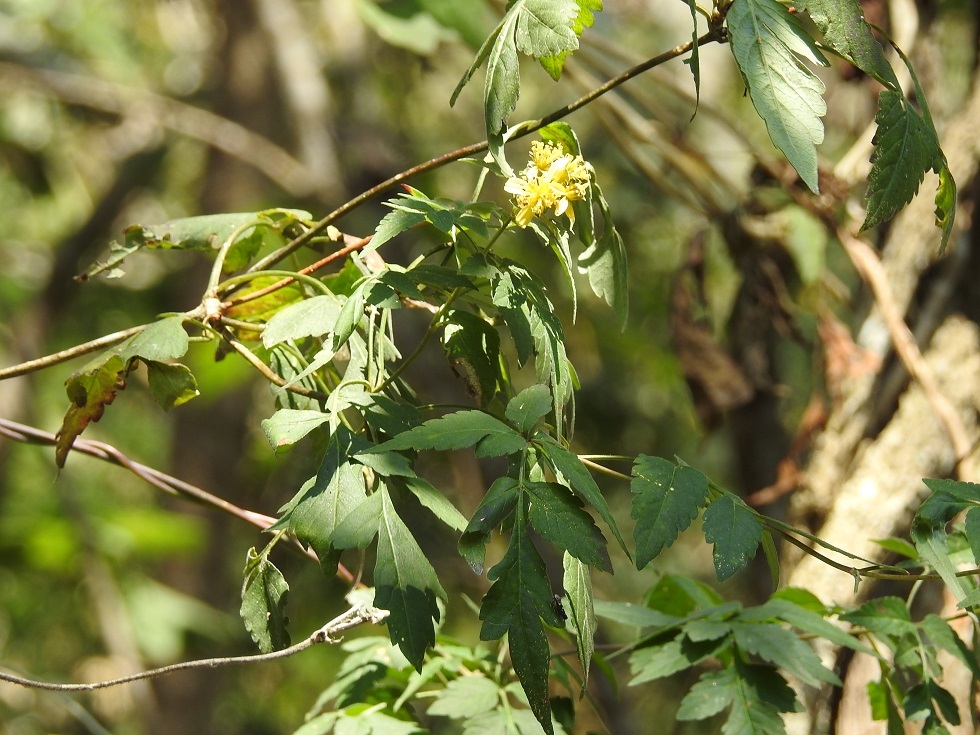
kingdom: Plantae
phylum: Tracheophyta
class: Magnoliopsida
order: Asterales
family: Asteraceae
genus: Bidens
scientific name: Bidens reptans
